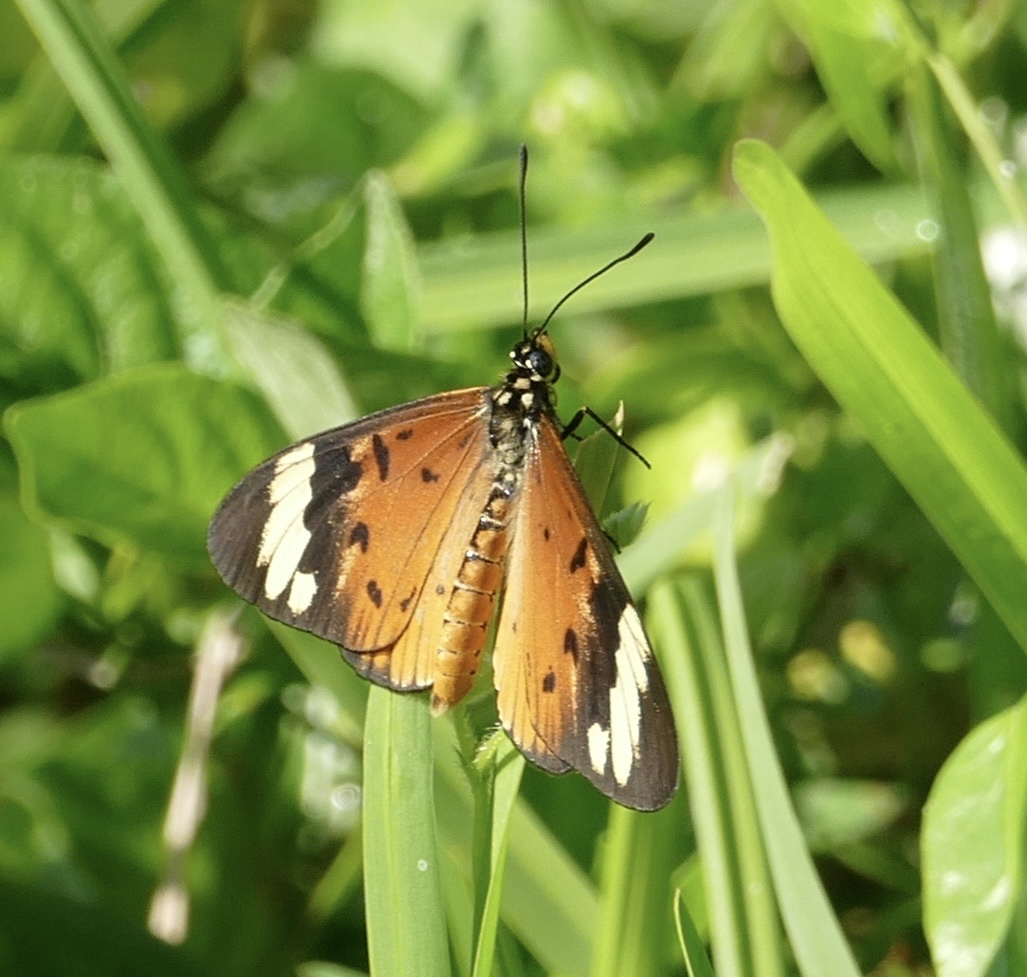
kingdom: Animalia
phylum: Arthropoda
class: Insecta
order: Lepidoptera
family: Nymphalidae
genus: Acraea
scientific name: Acraea Telchinia encedon
